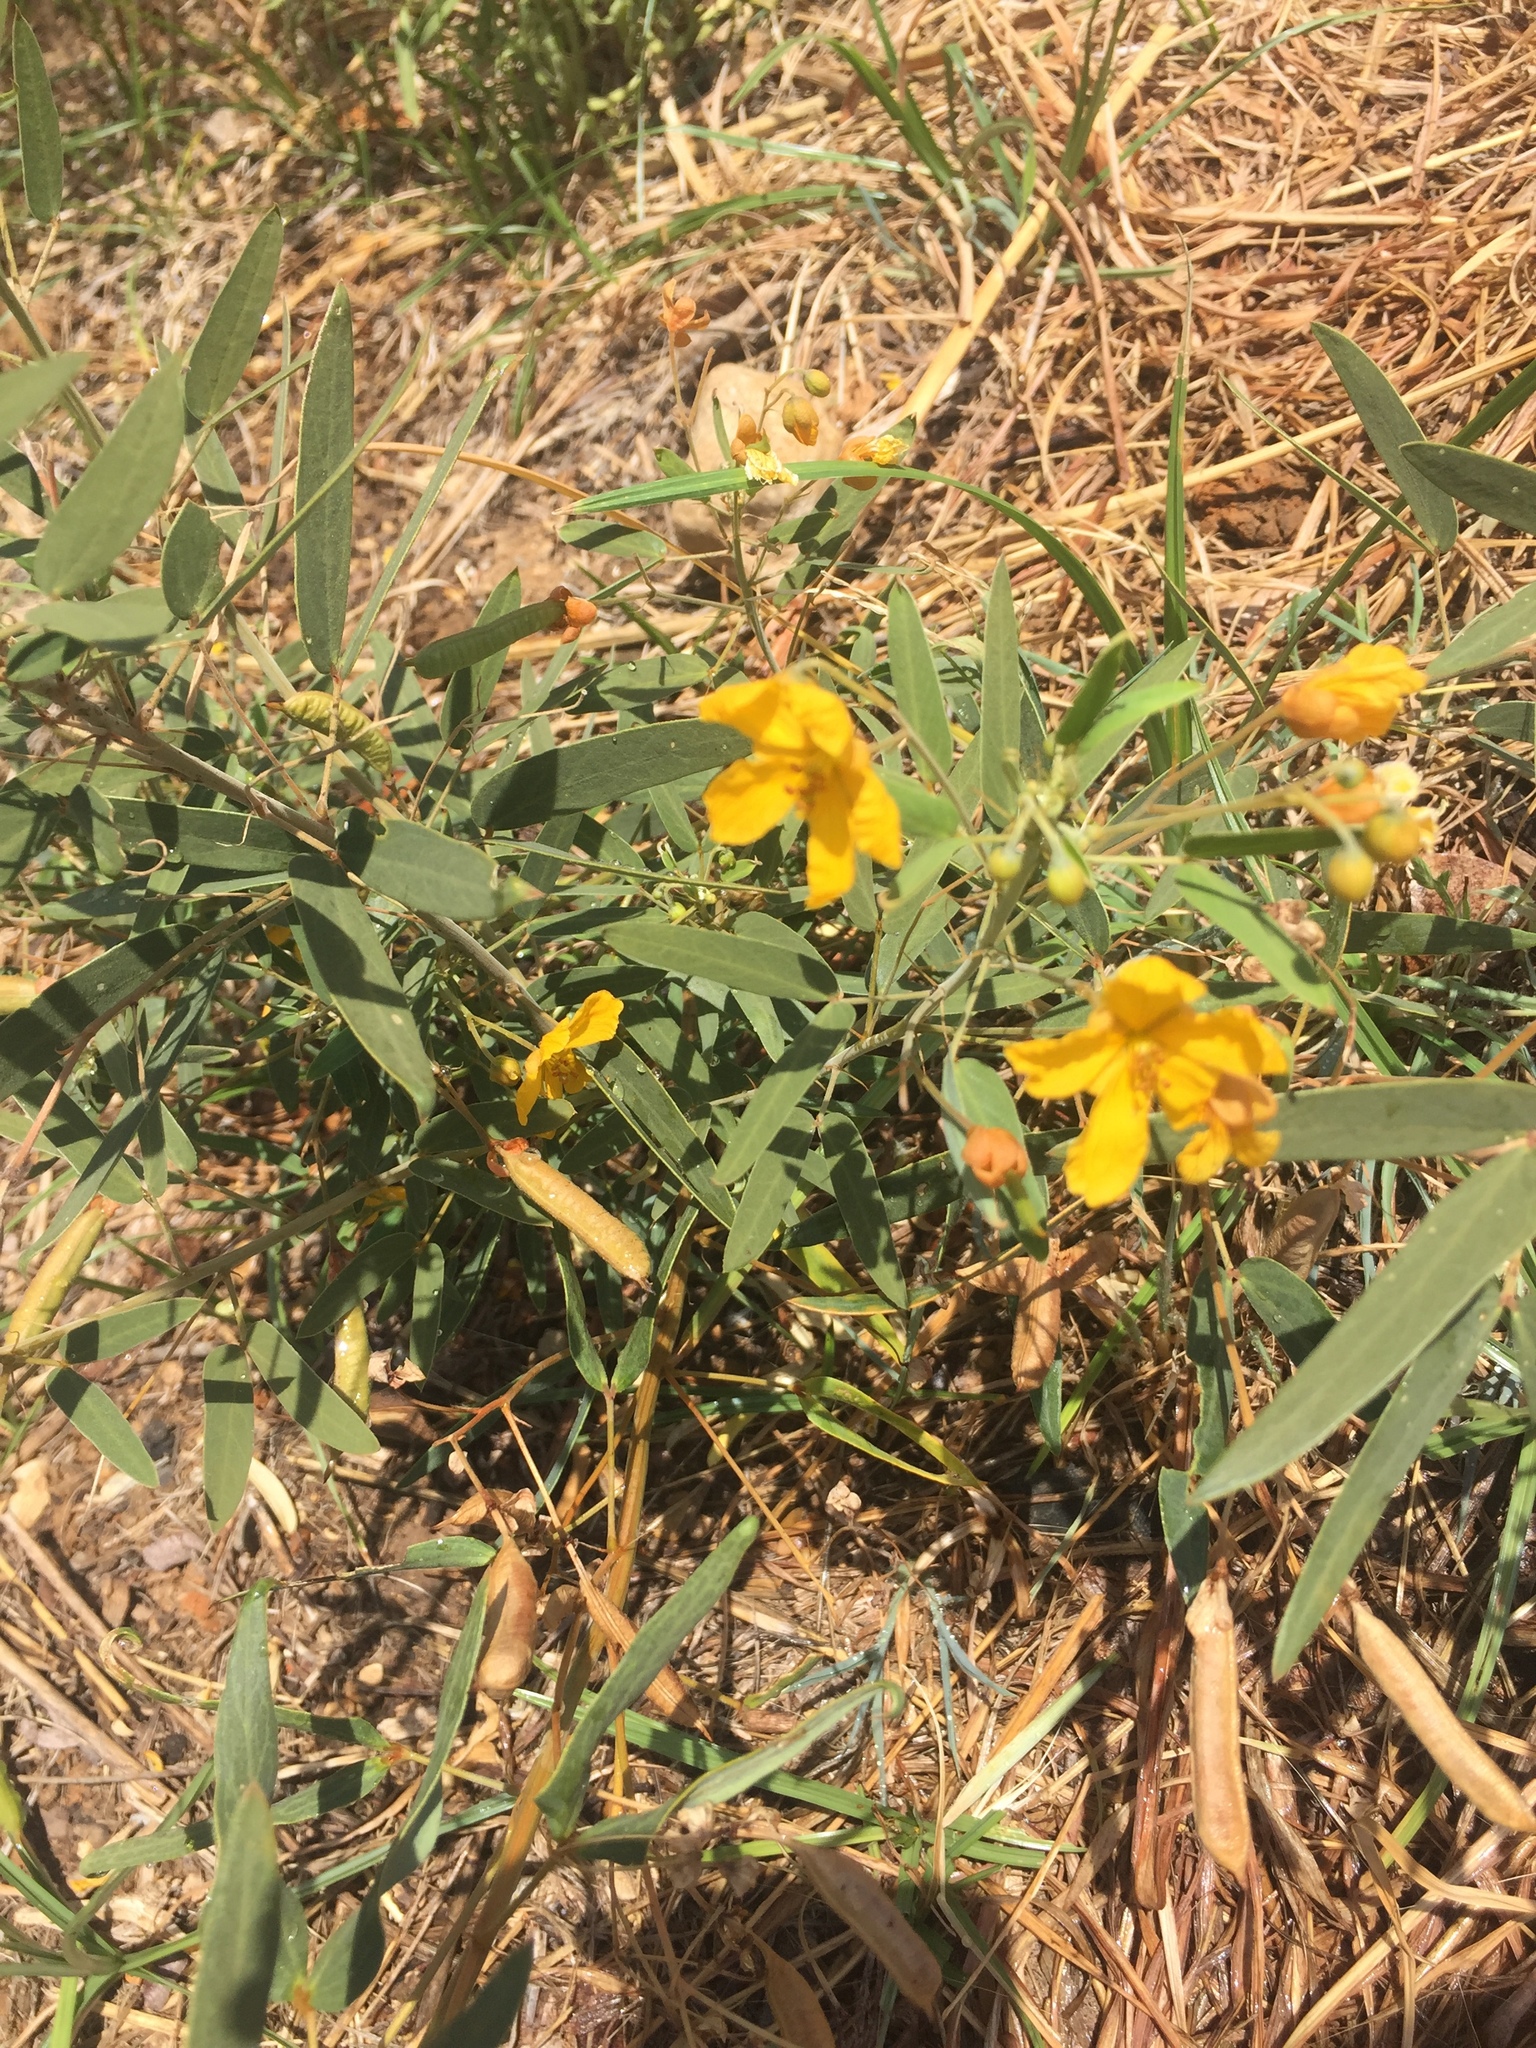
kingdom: Plantae
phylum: Tracheophyta
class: Magnoliopsida
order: Fabales
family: Fabaceae
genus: Senna
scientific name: Senna roemeriana
